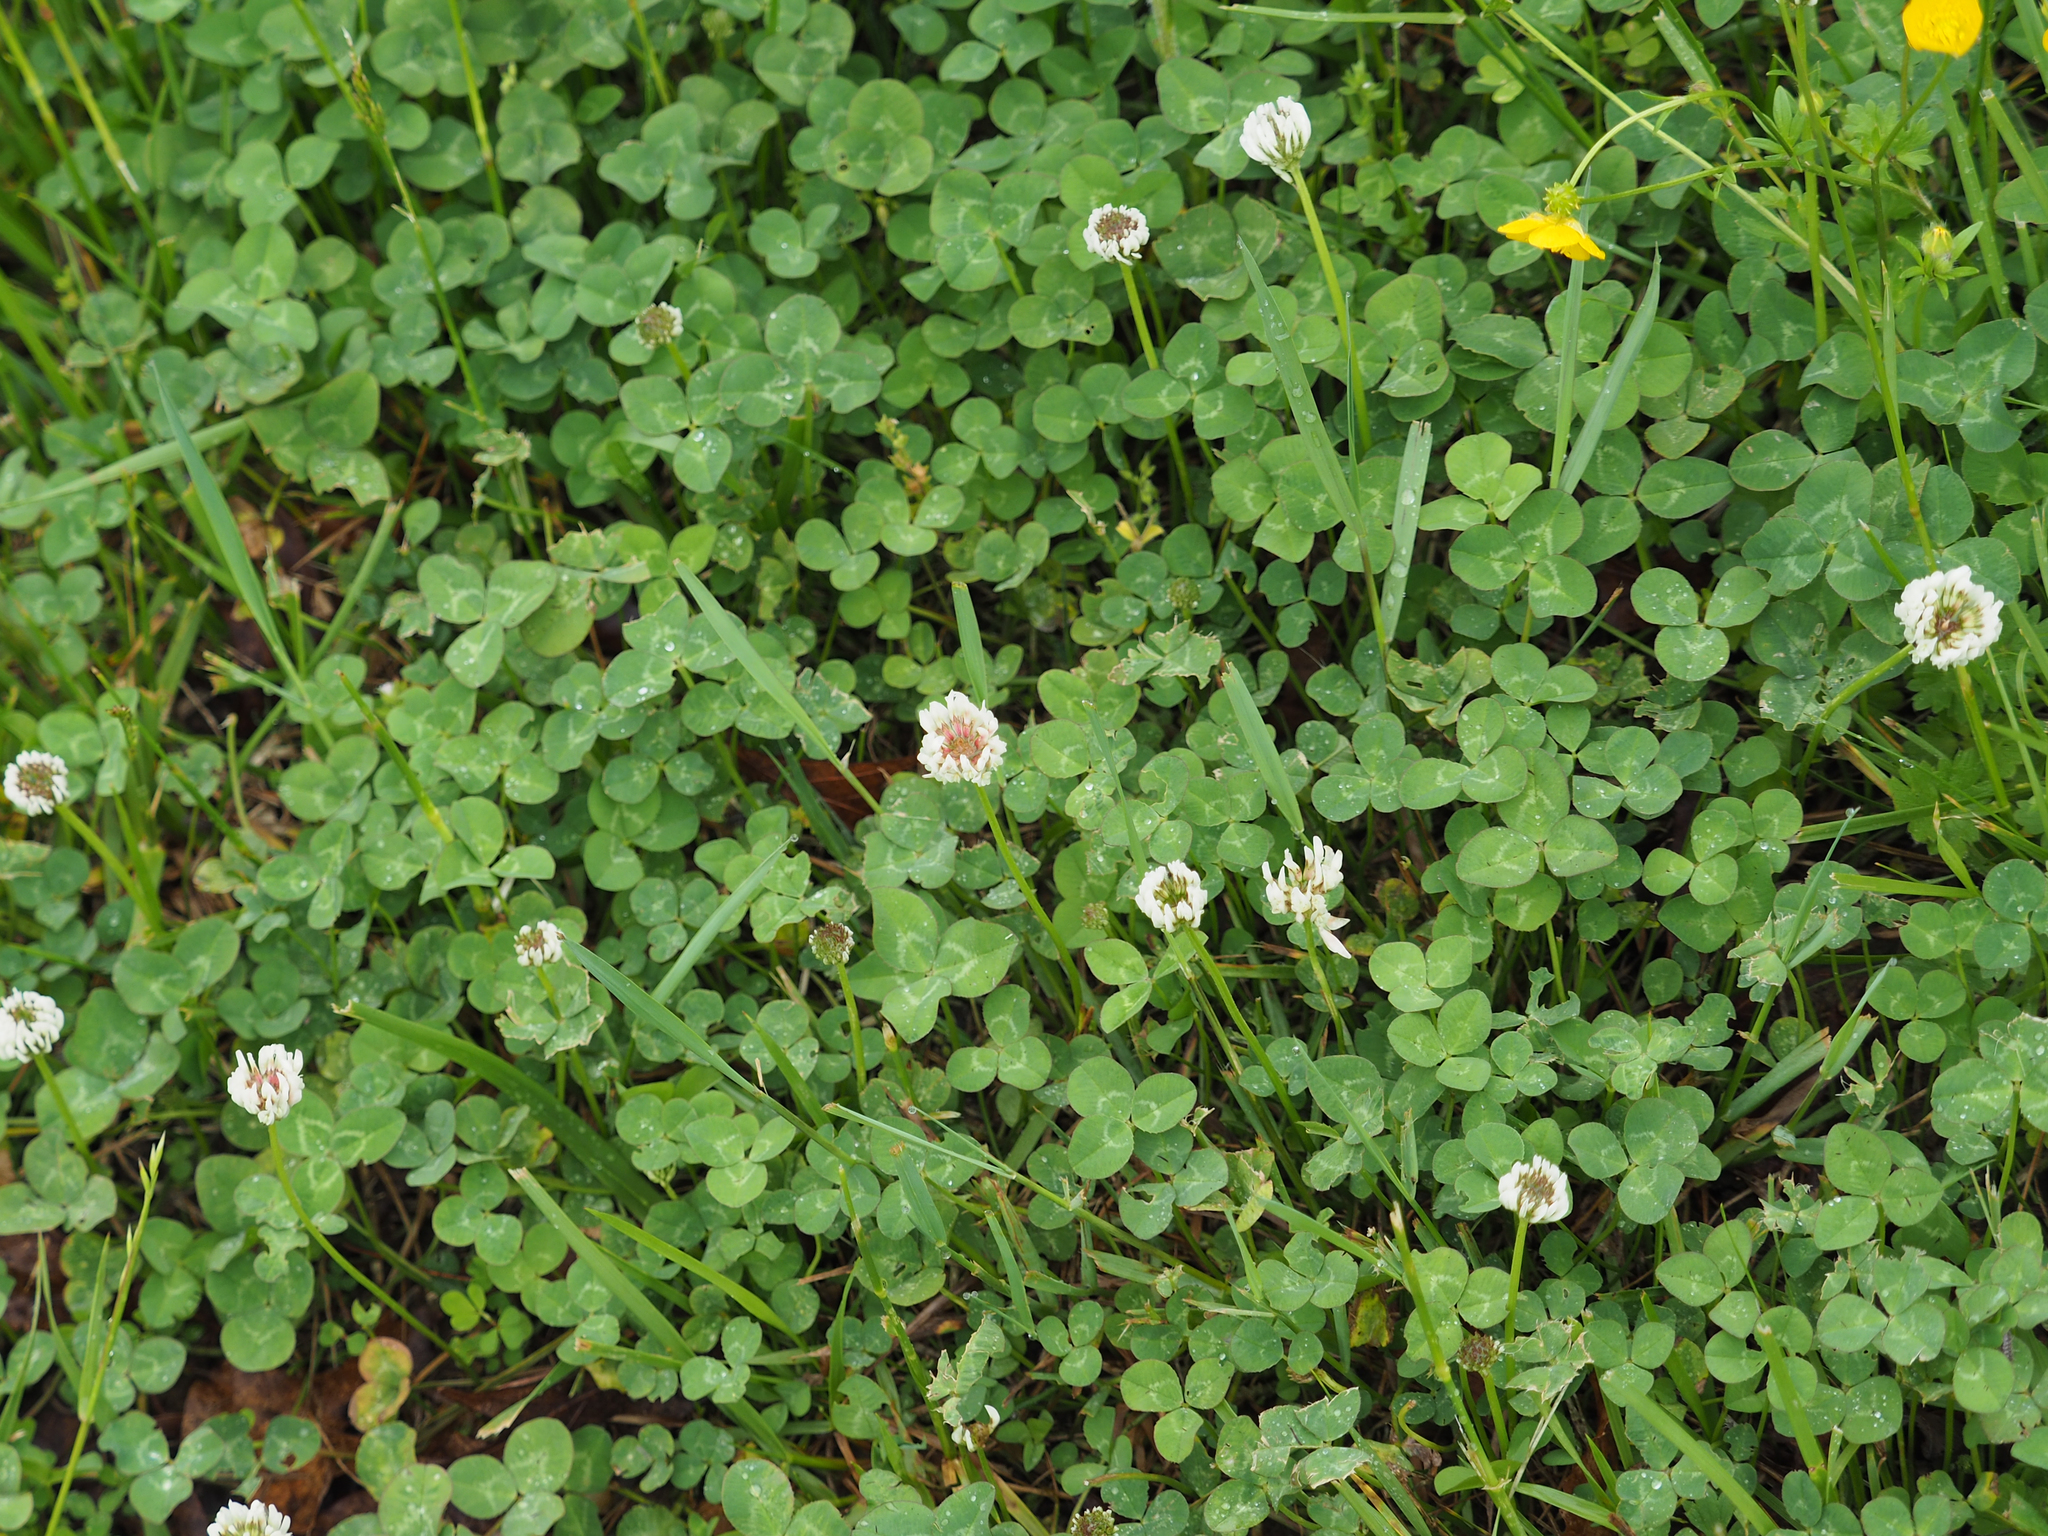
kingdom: Plantae
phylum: Tracheophyta
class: Magnoliopsida
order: Fabales
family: Fabaceae
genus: Trifolium
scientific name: Trifolium repens
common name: White clover
